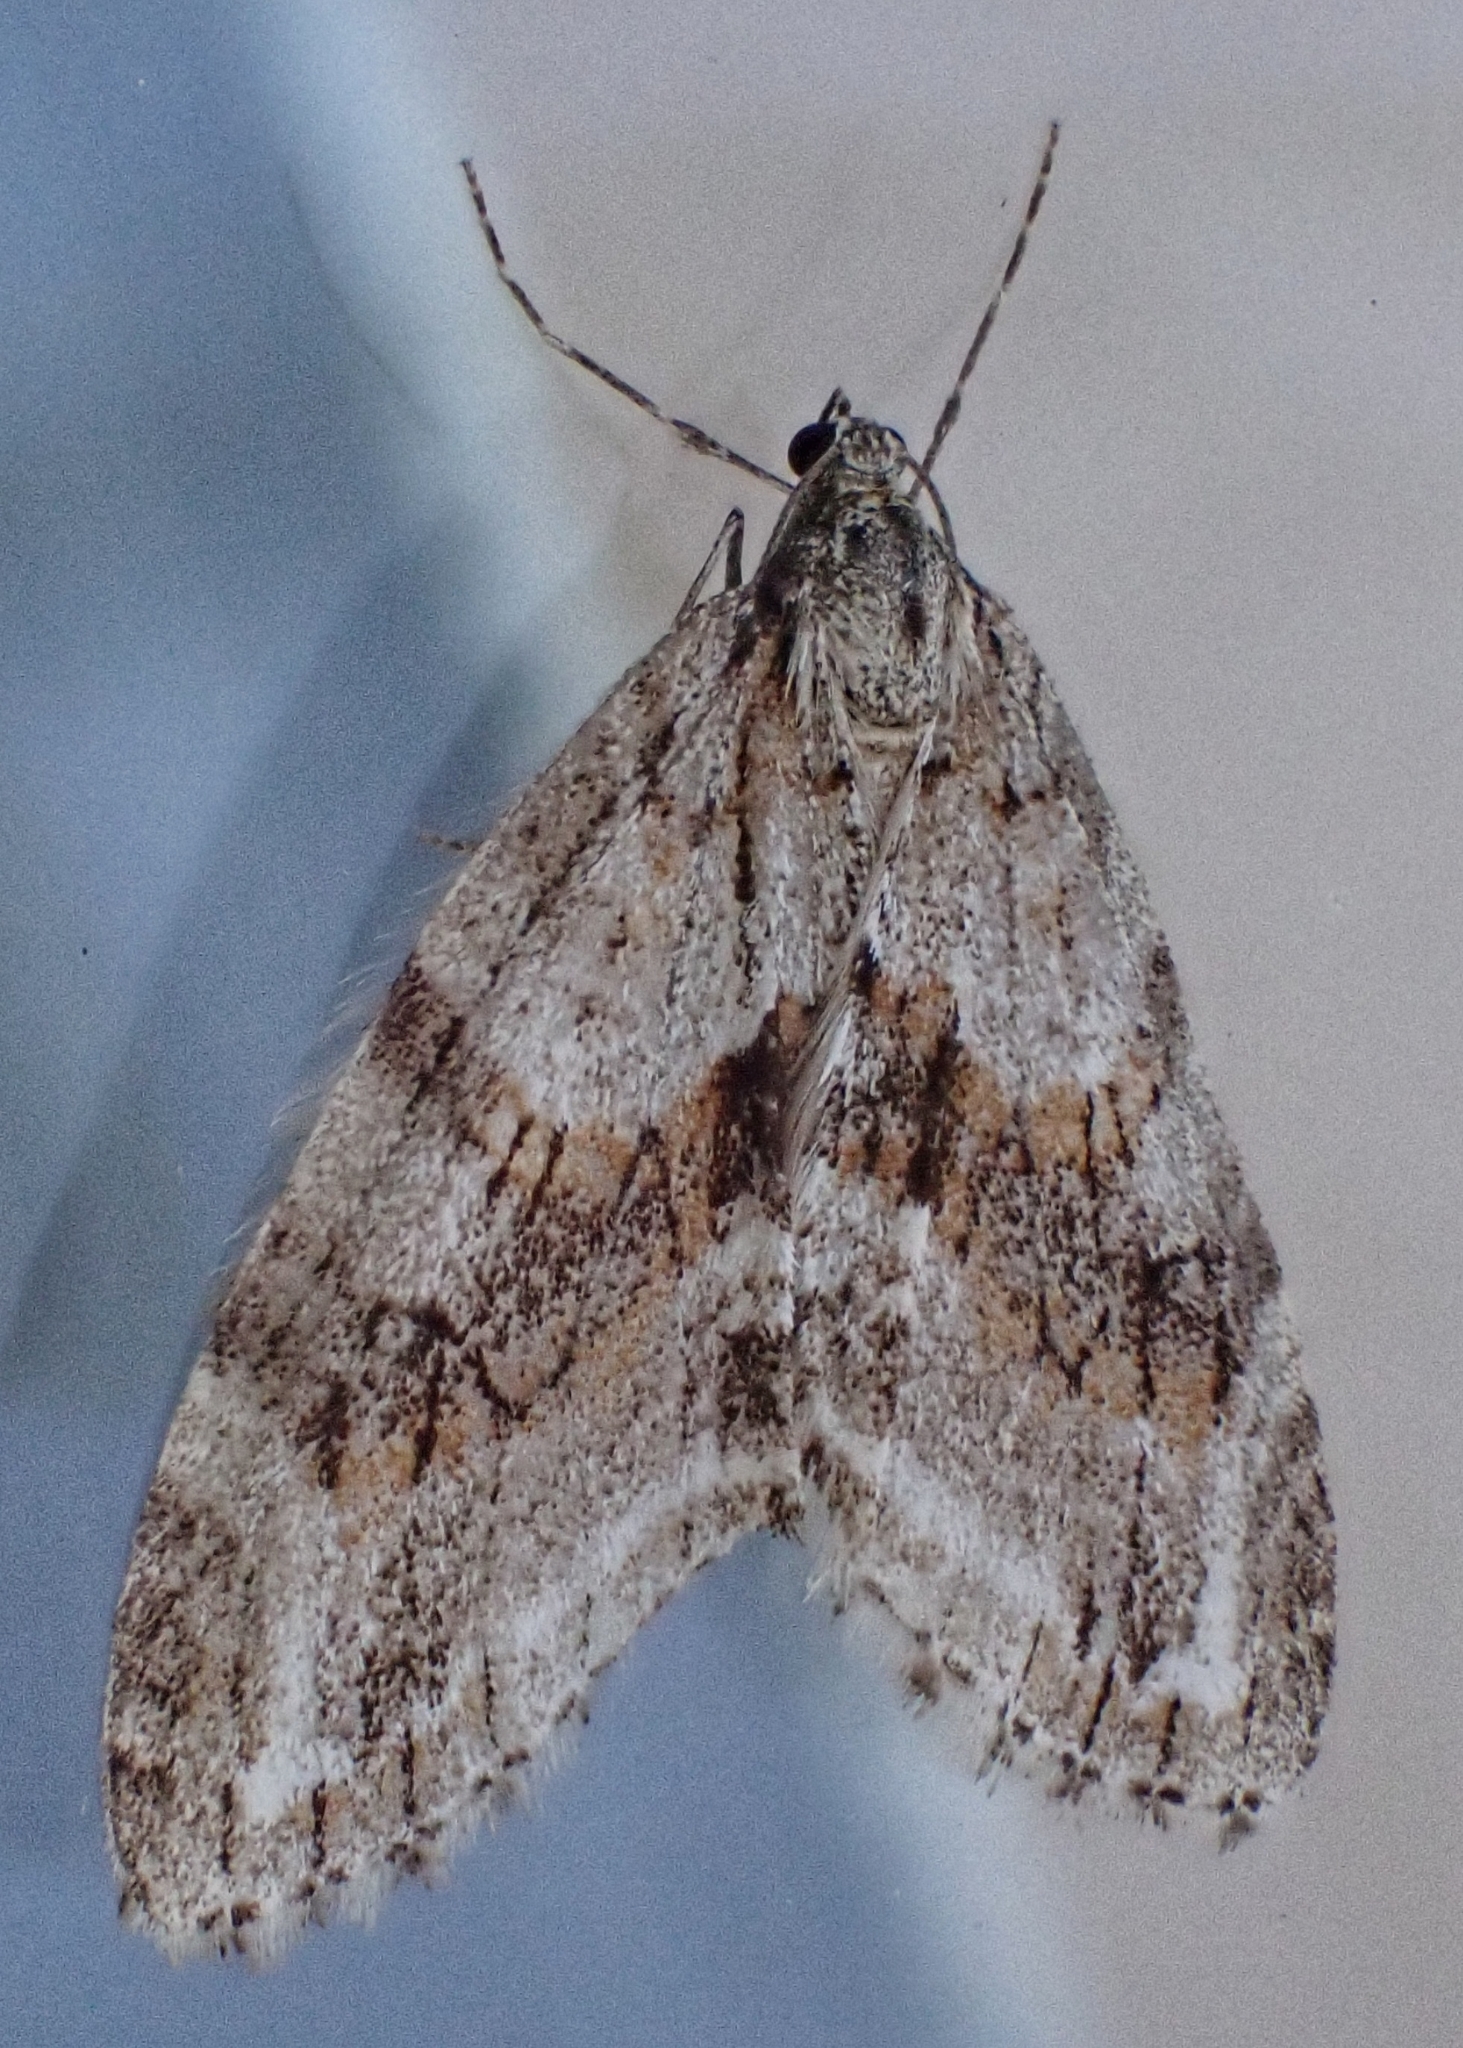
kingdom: Animalia
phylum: Arthropoda
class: Insecta
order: Lepidoptera
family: Geometridae
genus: Trichopteryx
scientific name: Trichopteryx polycommata
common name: Barred tooth-striped
